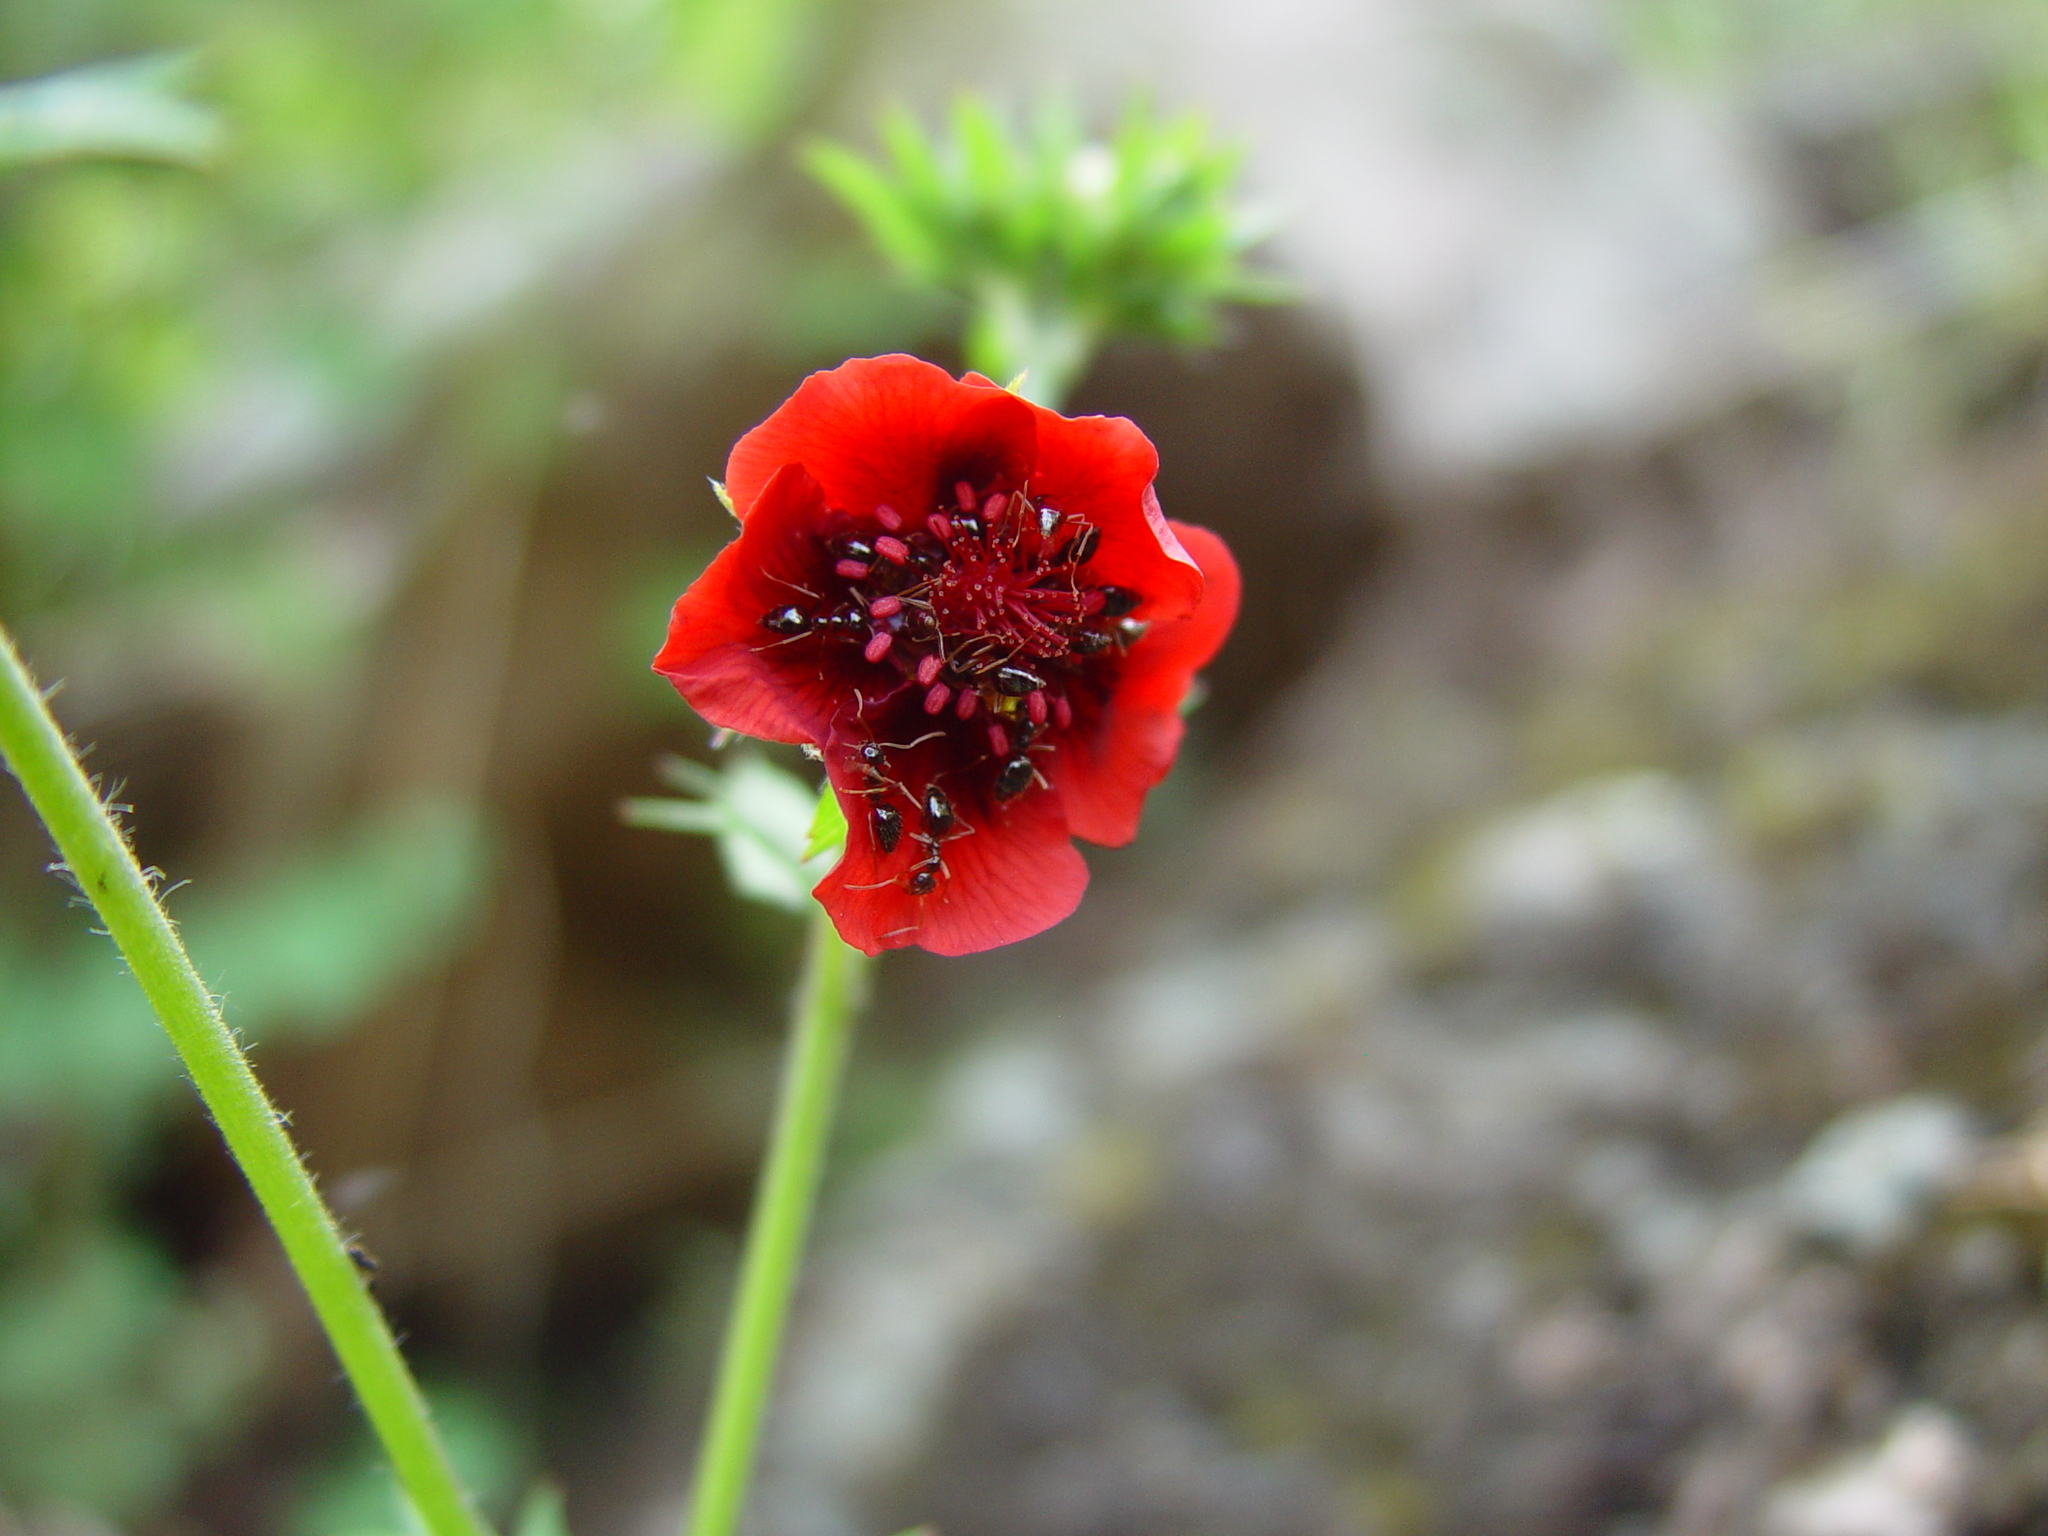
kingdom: Animalia
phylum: Arthropoda
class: Insecta
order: Hymenoptera
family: Formicidae
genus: Prenolepis
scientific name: Prenolepis imparis
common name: Small honey ant
